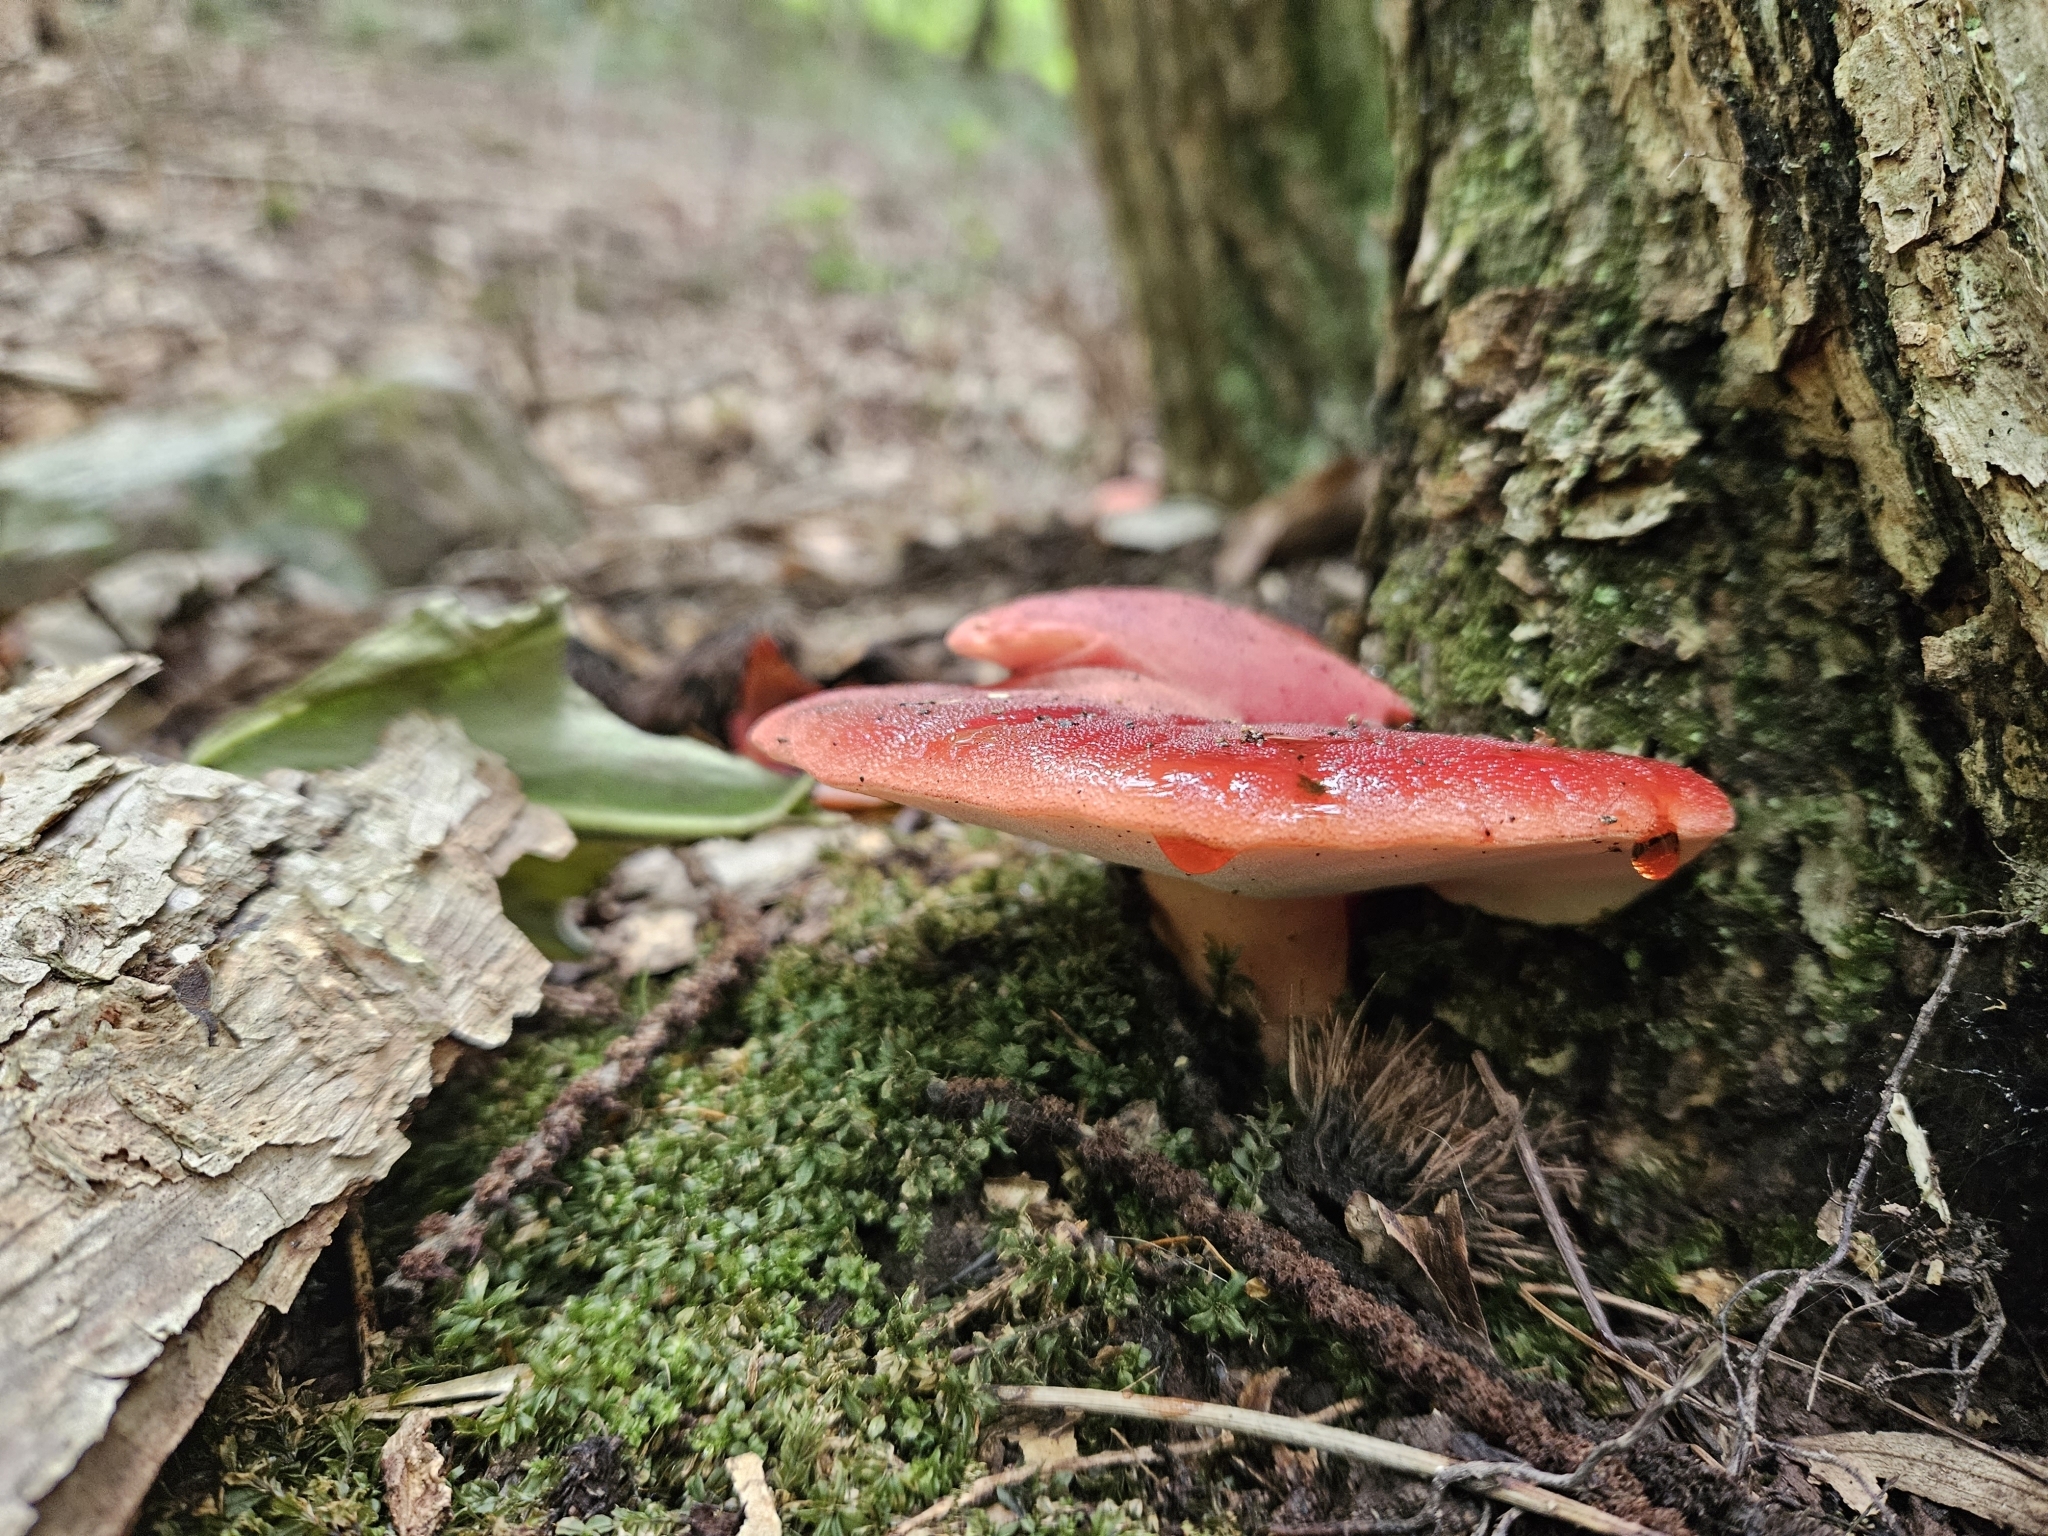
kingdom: Fungi
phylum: Basidiomycota
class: Agaricomycetes
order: Agaricales
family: Fistulinaceae
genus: Fistulina
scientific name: Fistulina hepatica
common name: Beef-steak fungus
